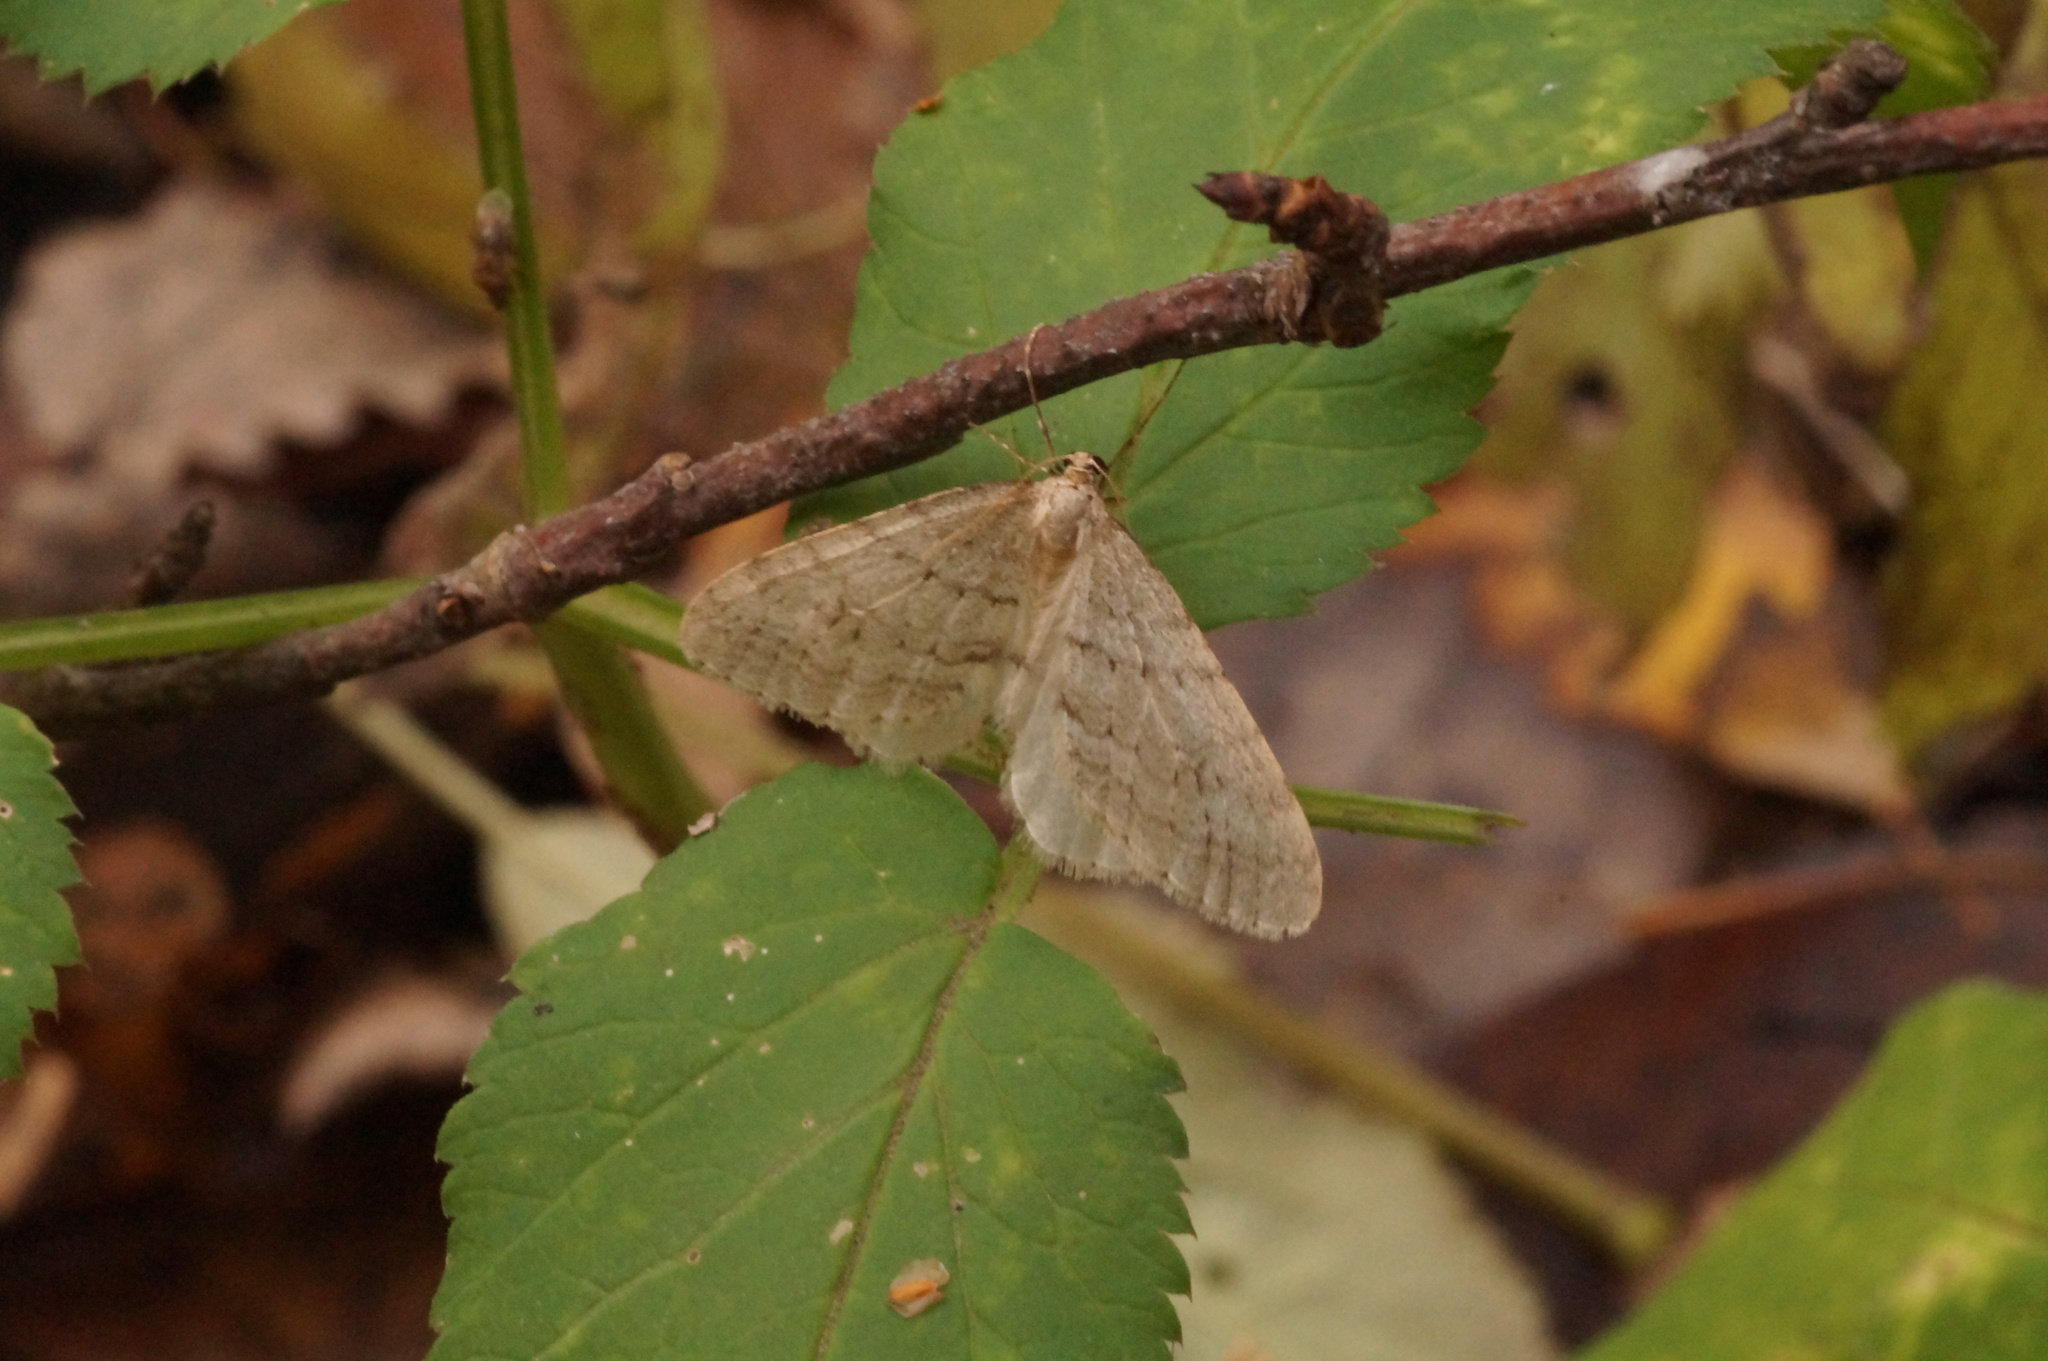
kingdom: Animalia
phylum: Arthropoda
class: Insecta
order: Lepidoptera
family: Geometridae
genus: Operophtera
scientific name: Operophtera fagata
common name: Northern winter moth
